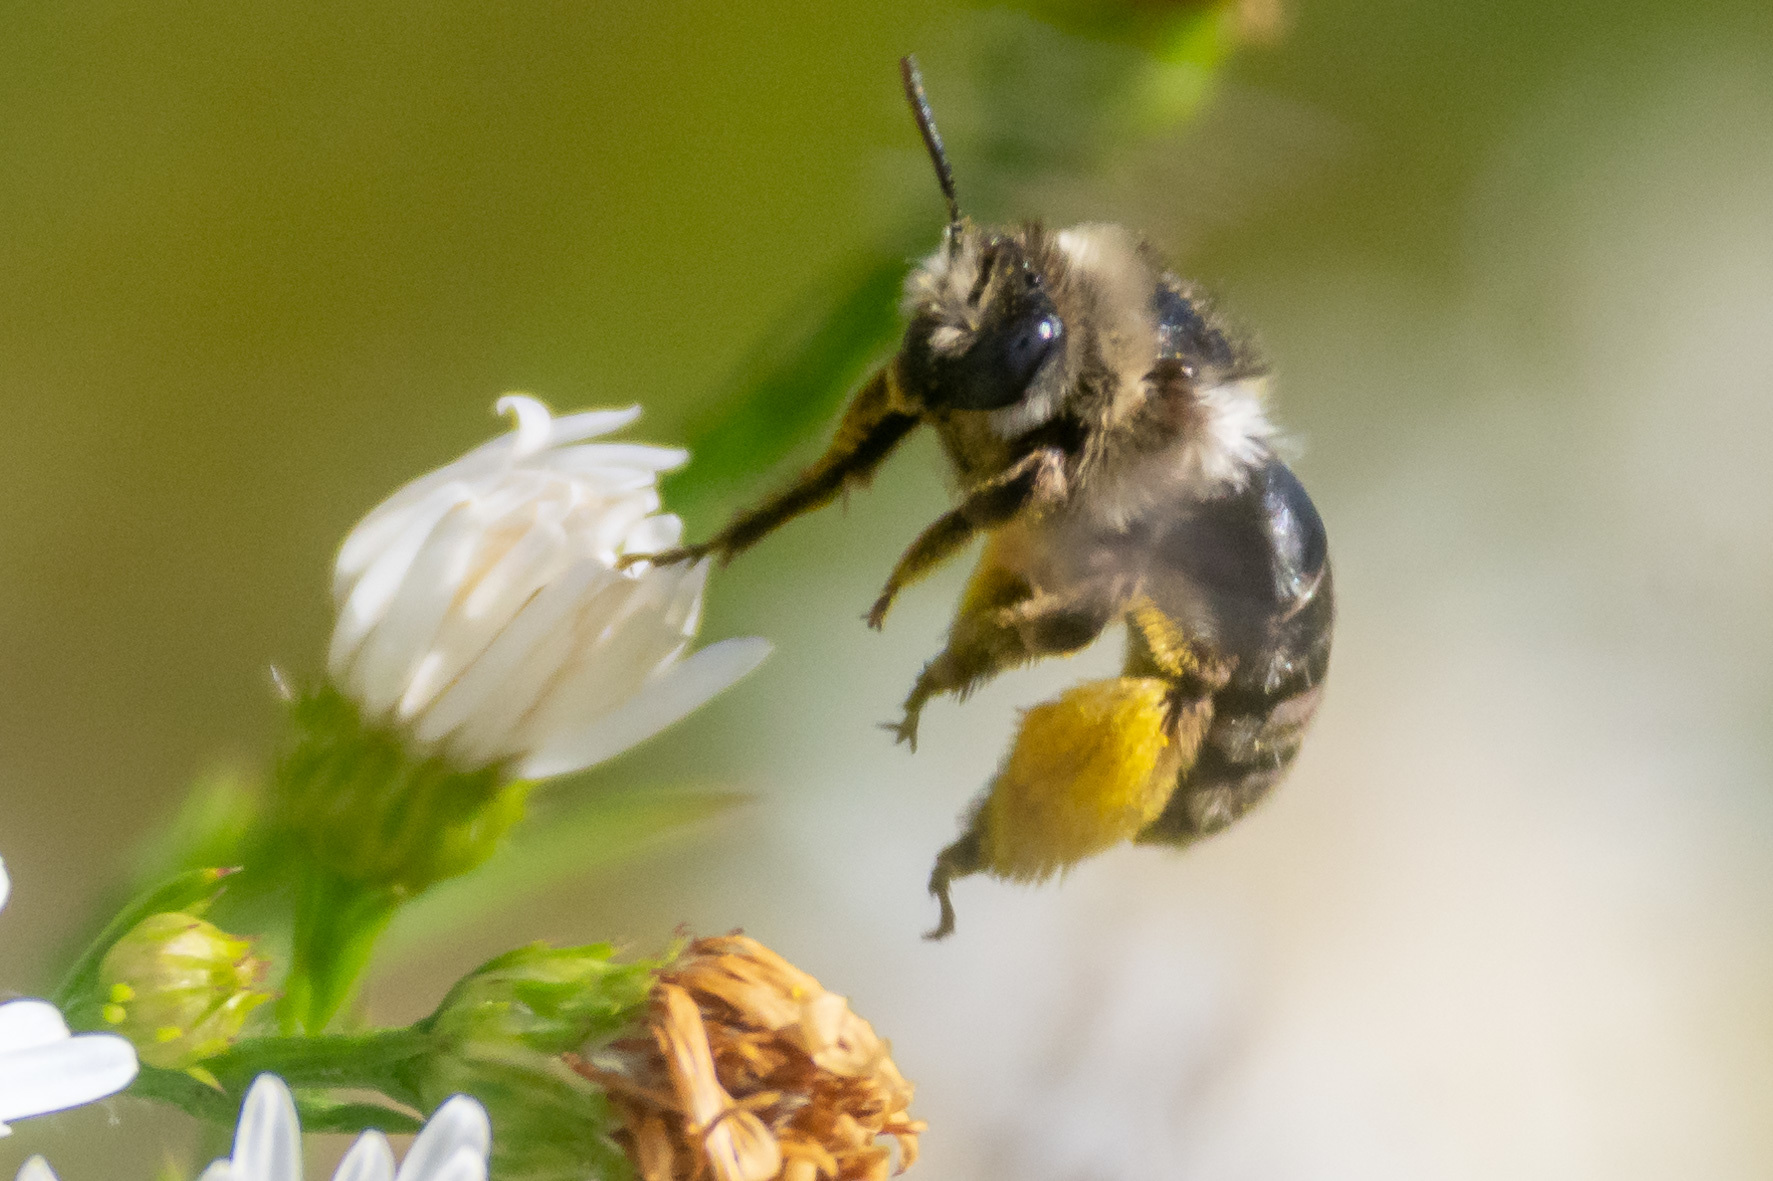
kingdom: Animalia
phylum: Arthropoda
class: Insecta
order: Hymenoptera
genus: Eumelissodes
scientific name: Eumelissodes
